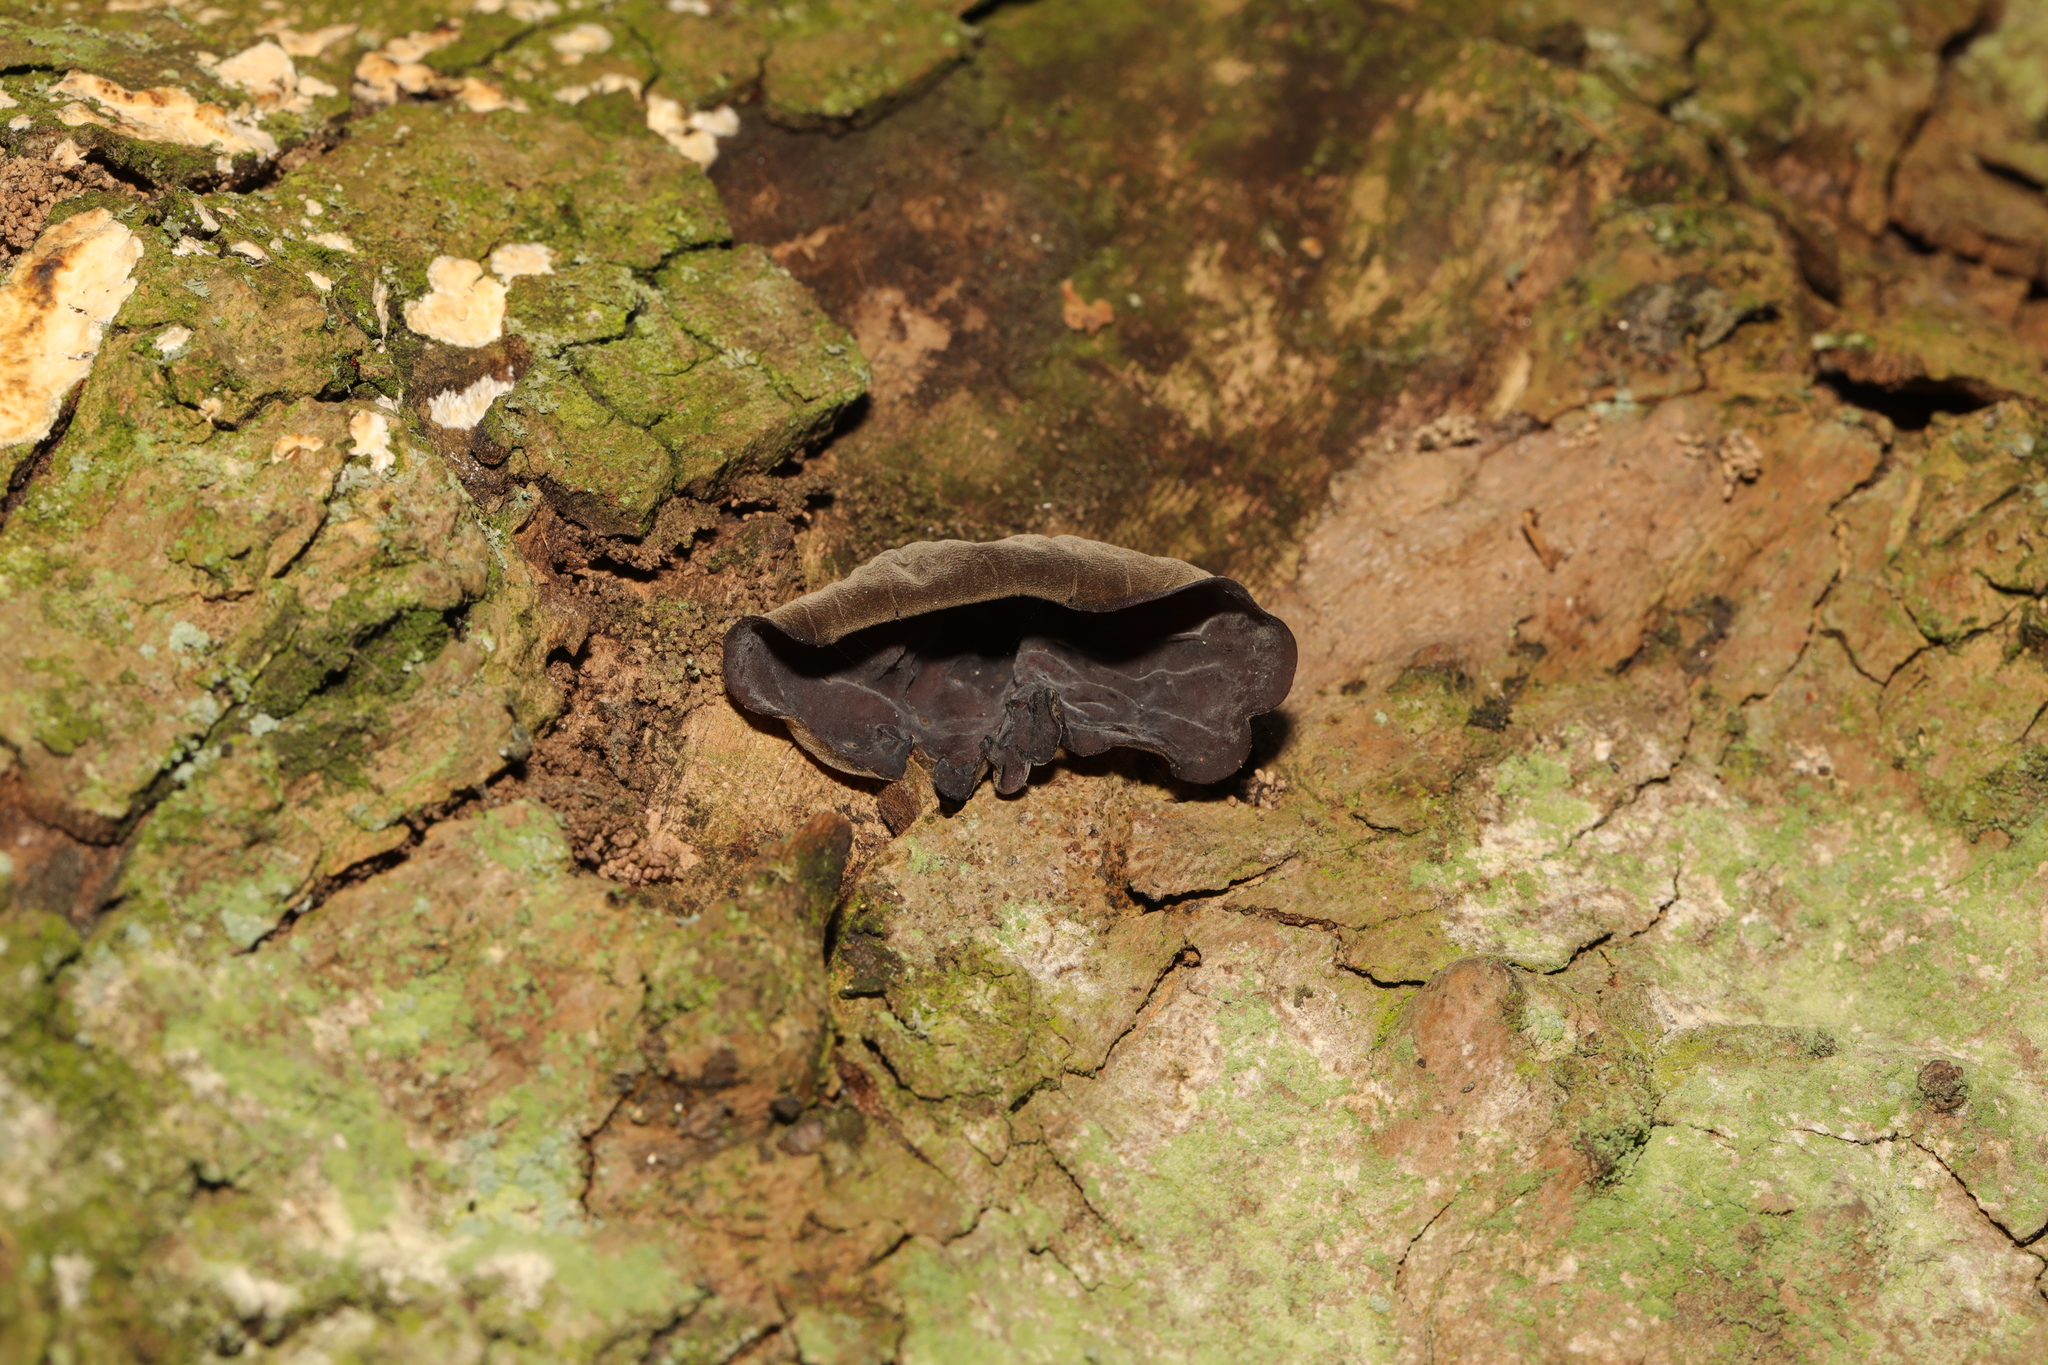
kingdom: Fungi
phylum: Basidiomycota
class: Agaricomycetes
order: Auriculariales
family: Auriculariaceae
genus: Auricularia
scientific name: Auricularia auricula-judae
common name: Jelly ear
